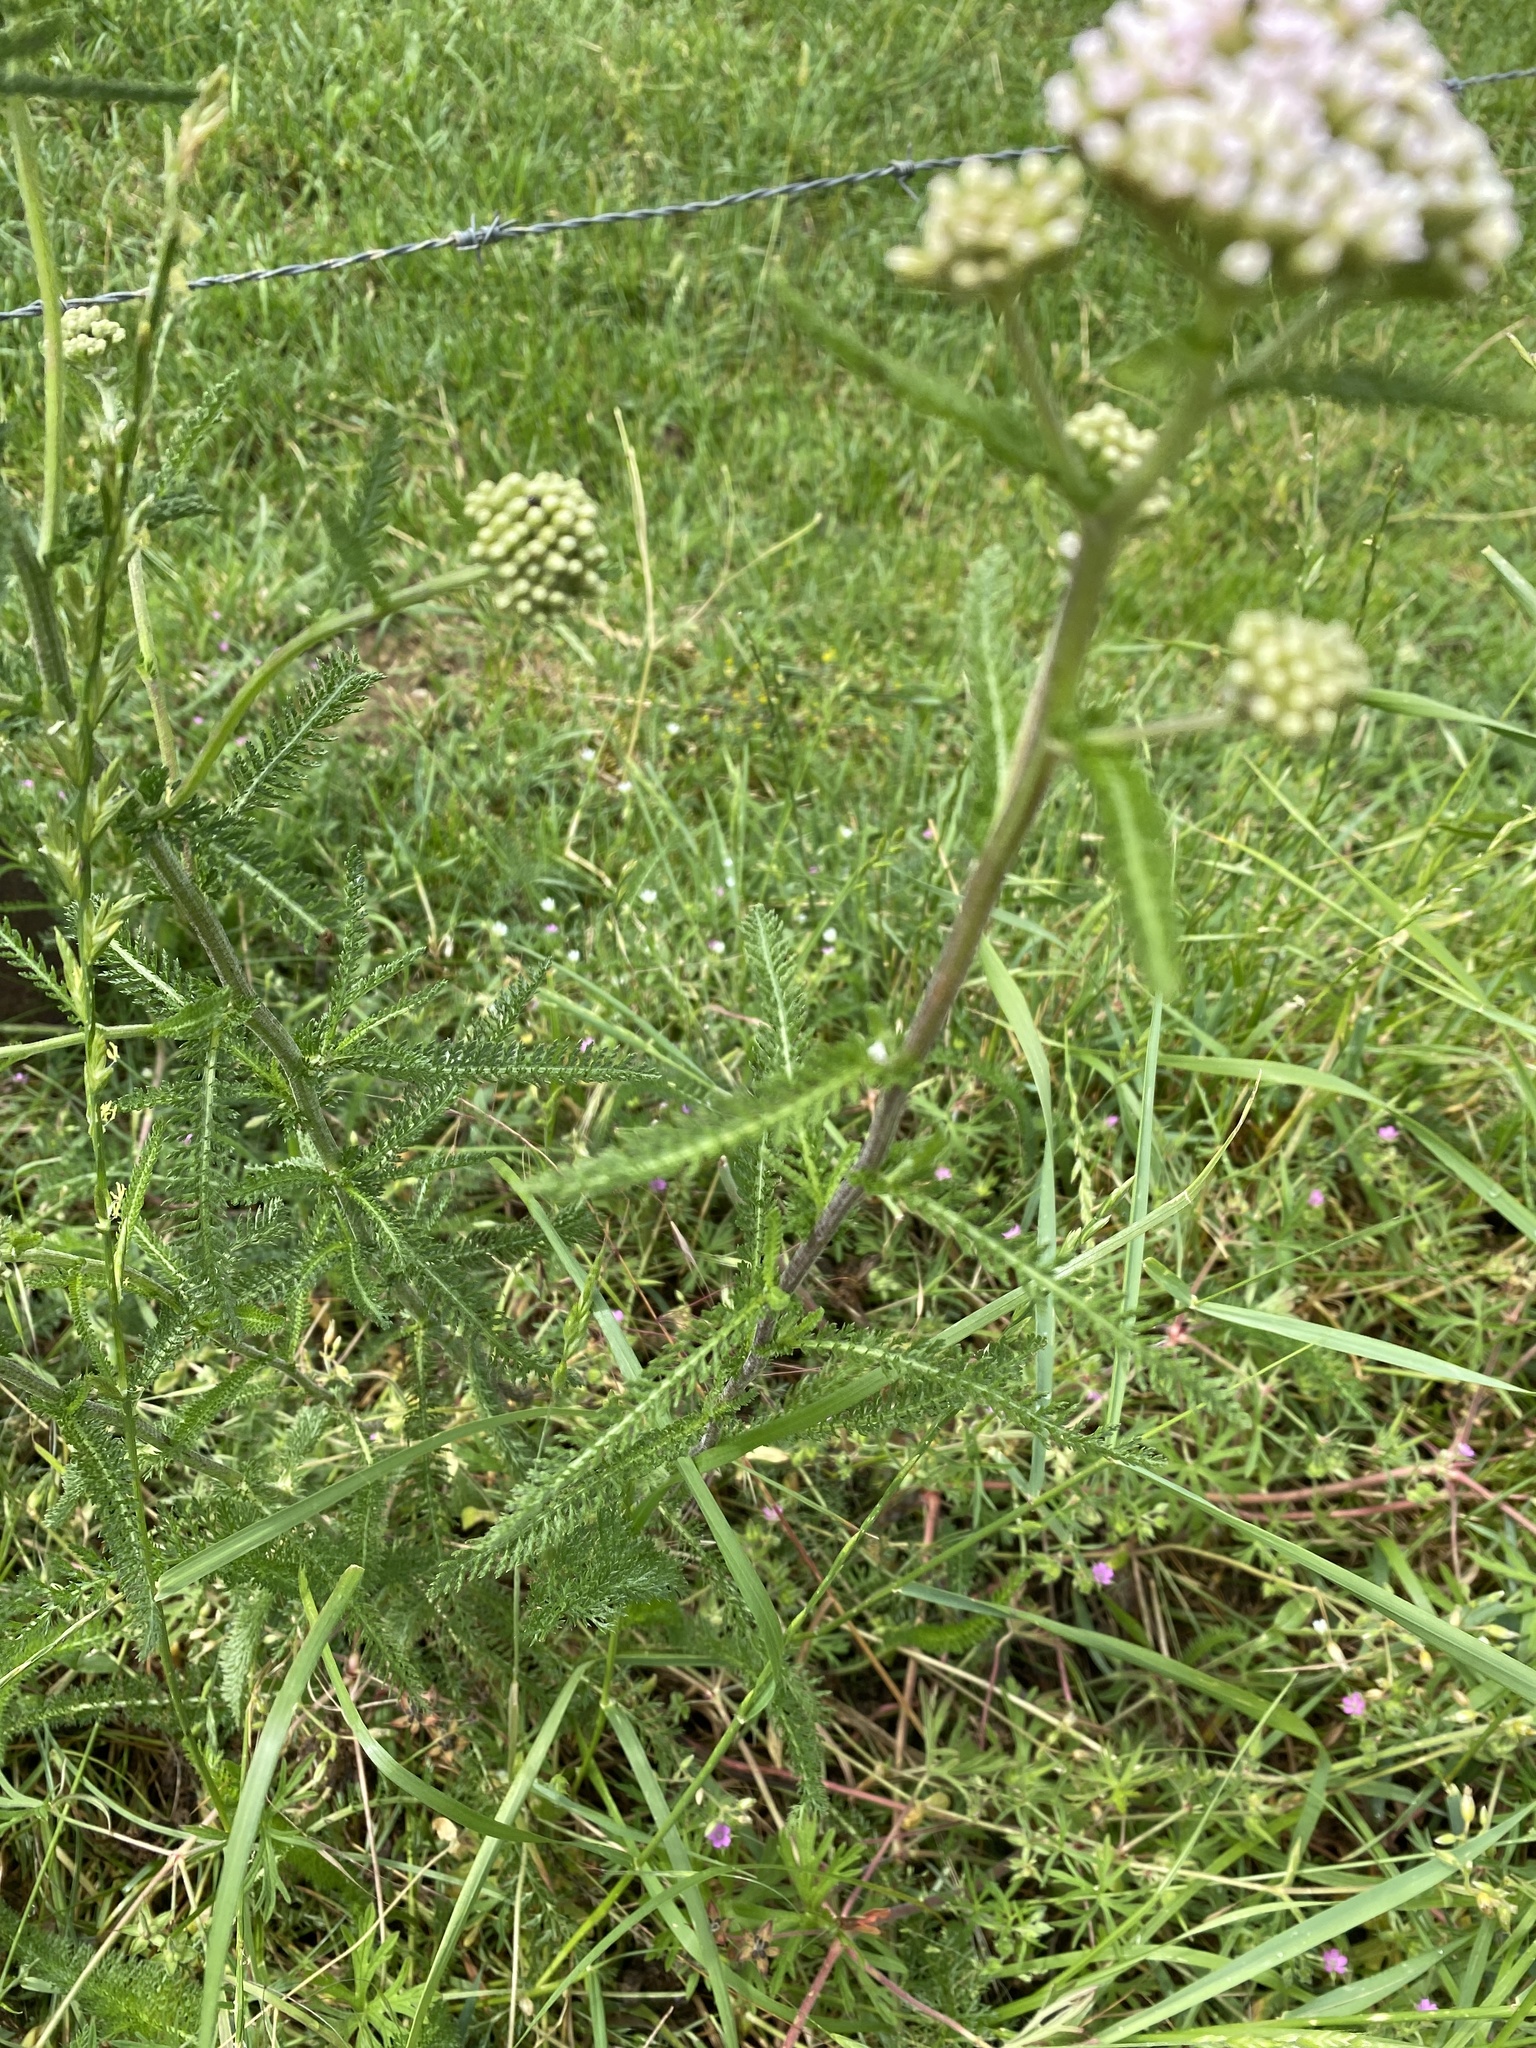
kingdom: Plantae
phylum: Tracheophyta
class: Magnoliopsida
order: Asterales
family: Asteraceae
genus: Achillea
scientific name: Achillea millefolium
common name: Yarrow
